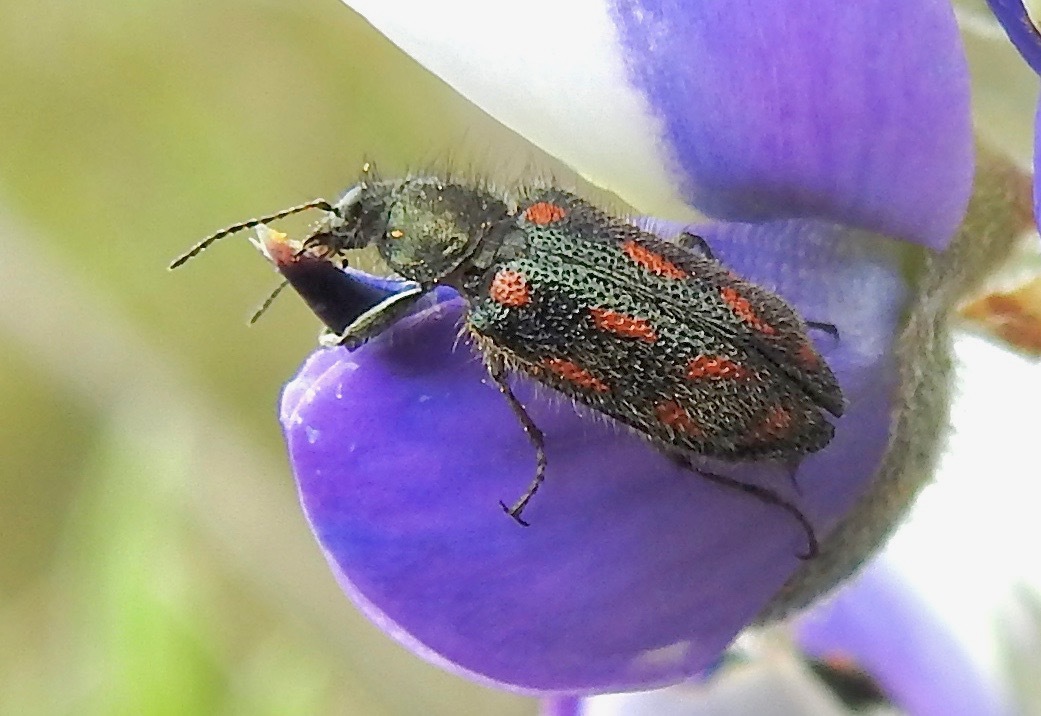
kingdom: Animalia
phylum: Arthropoda
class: Insecta
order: Coleoptera
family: Melyridae
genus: Astylus
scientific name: Astylus
